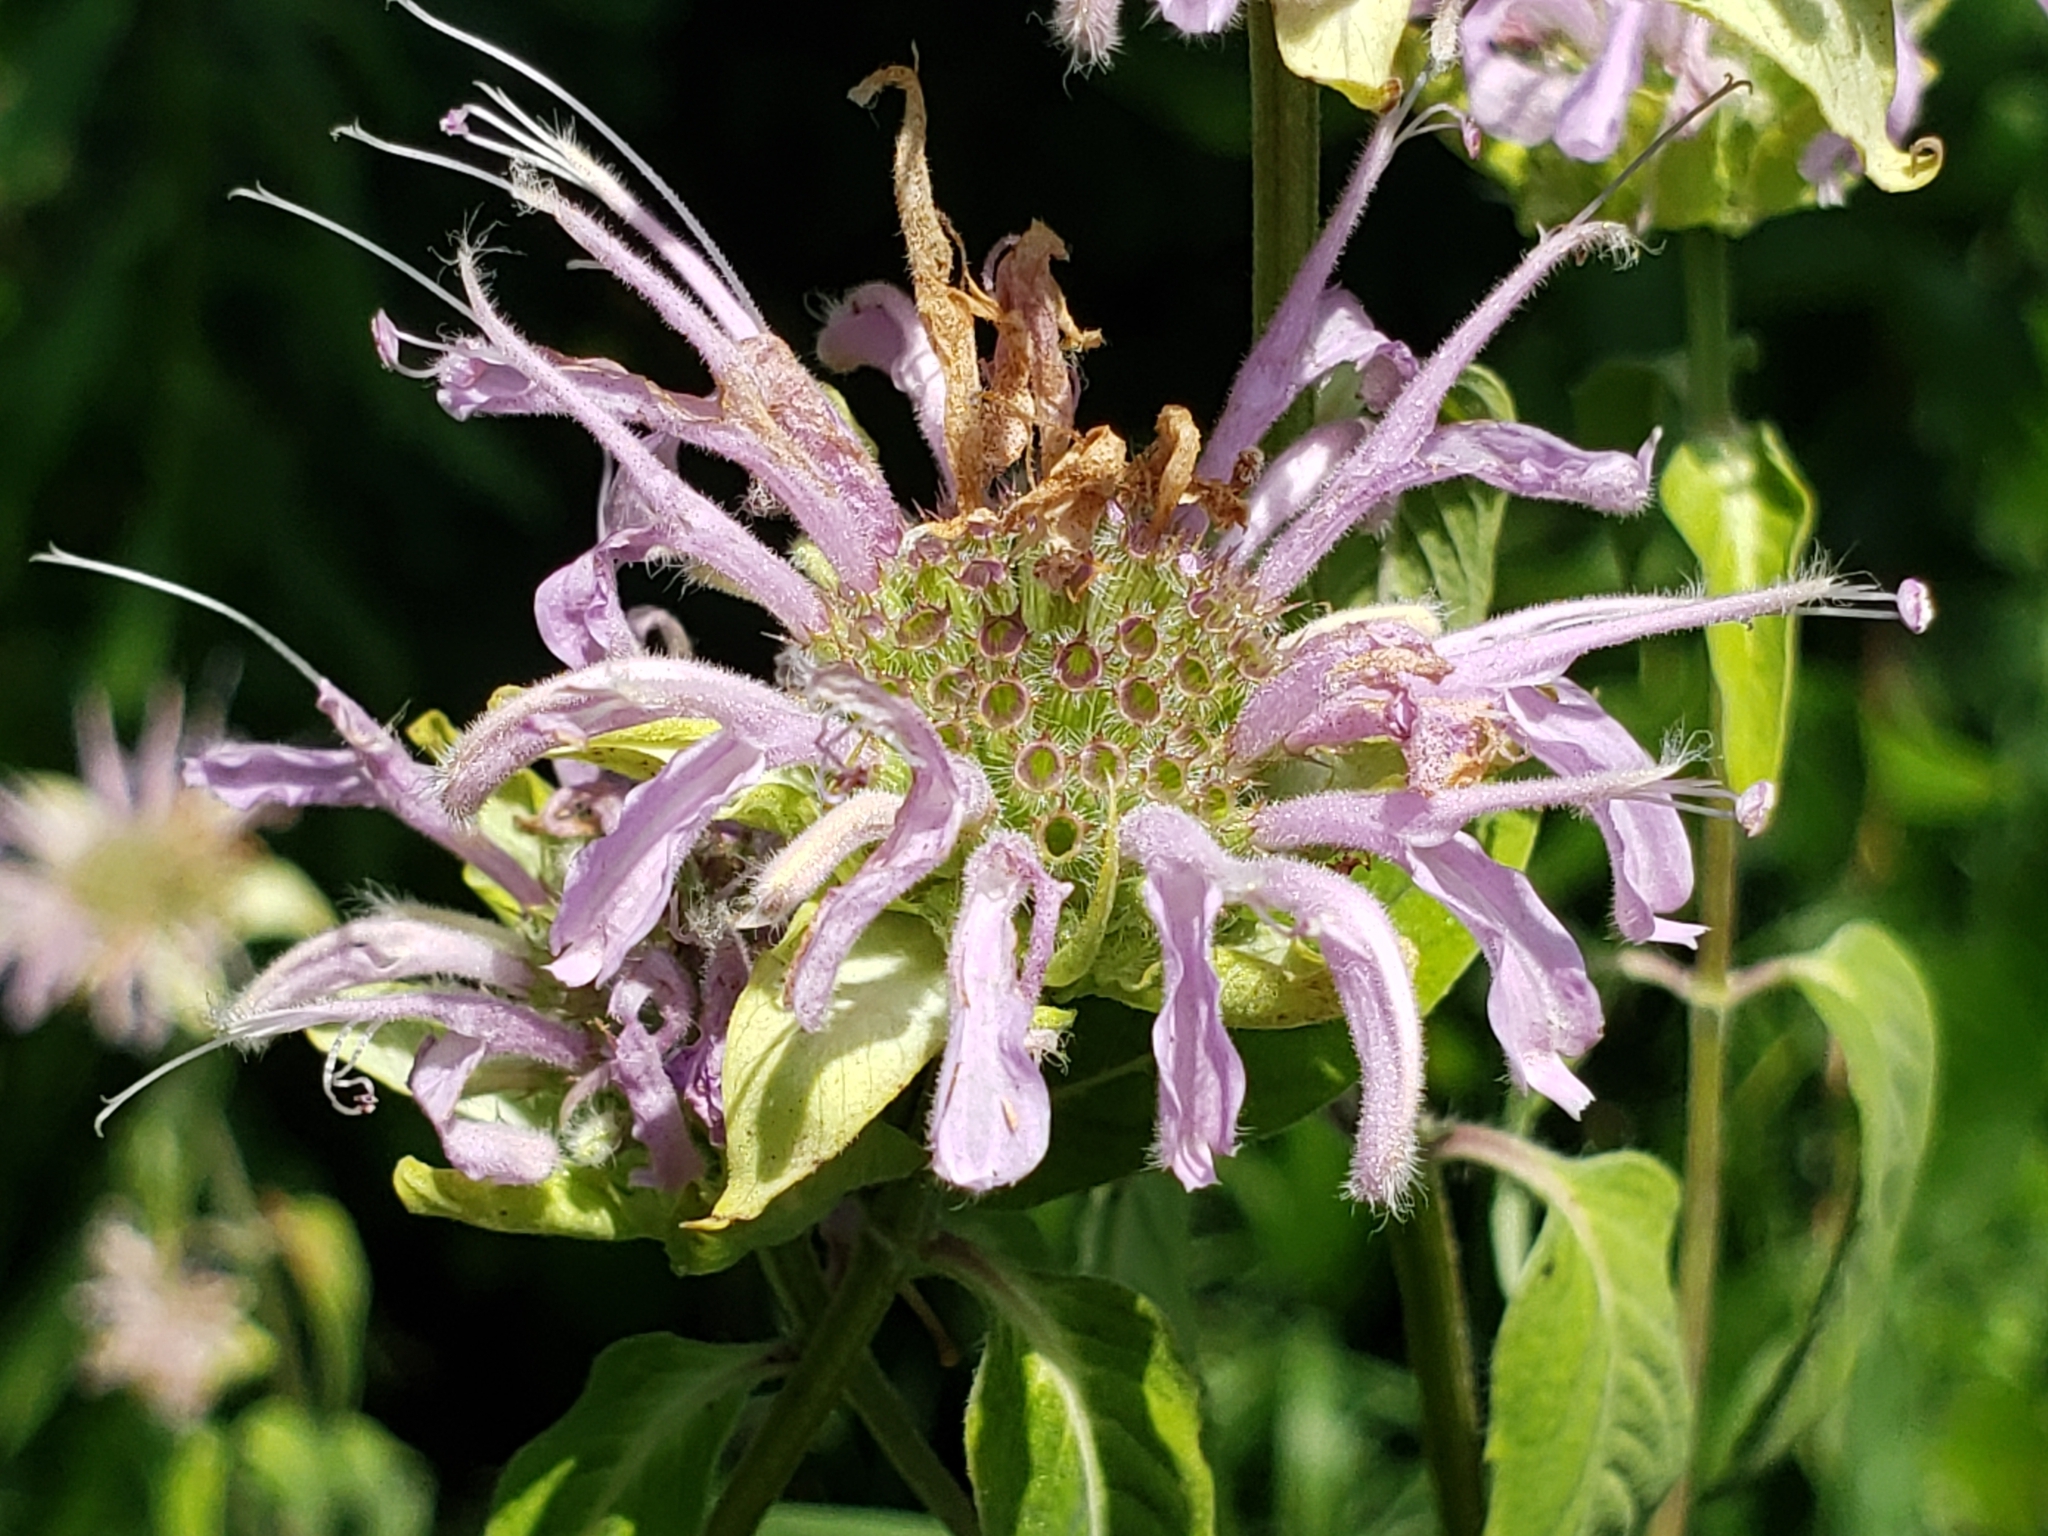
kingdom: Plantae
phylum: Tracheophyta
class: Magnoliopsida
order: Lamiales
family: Lamiaceae
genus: Monarda
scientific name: Monarda fistulosa
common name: Purple beebalm
